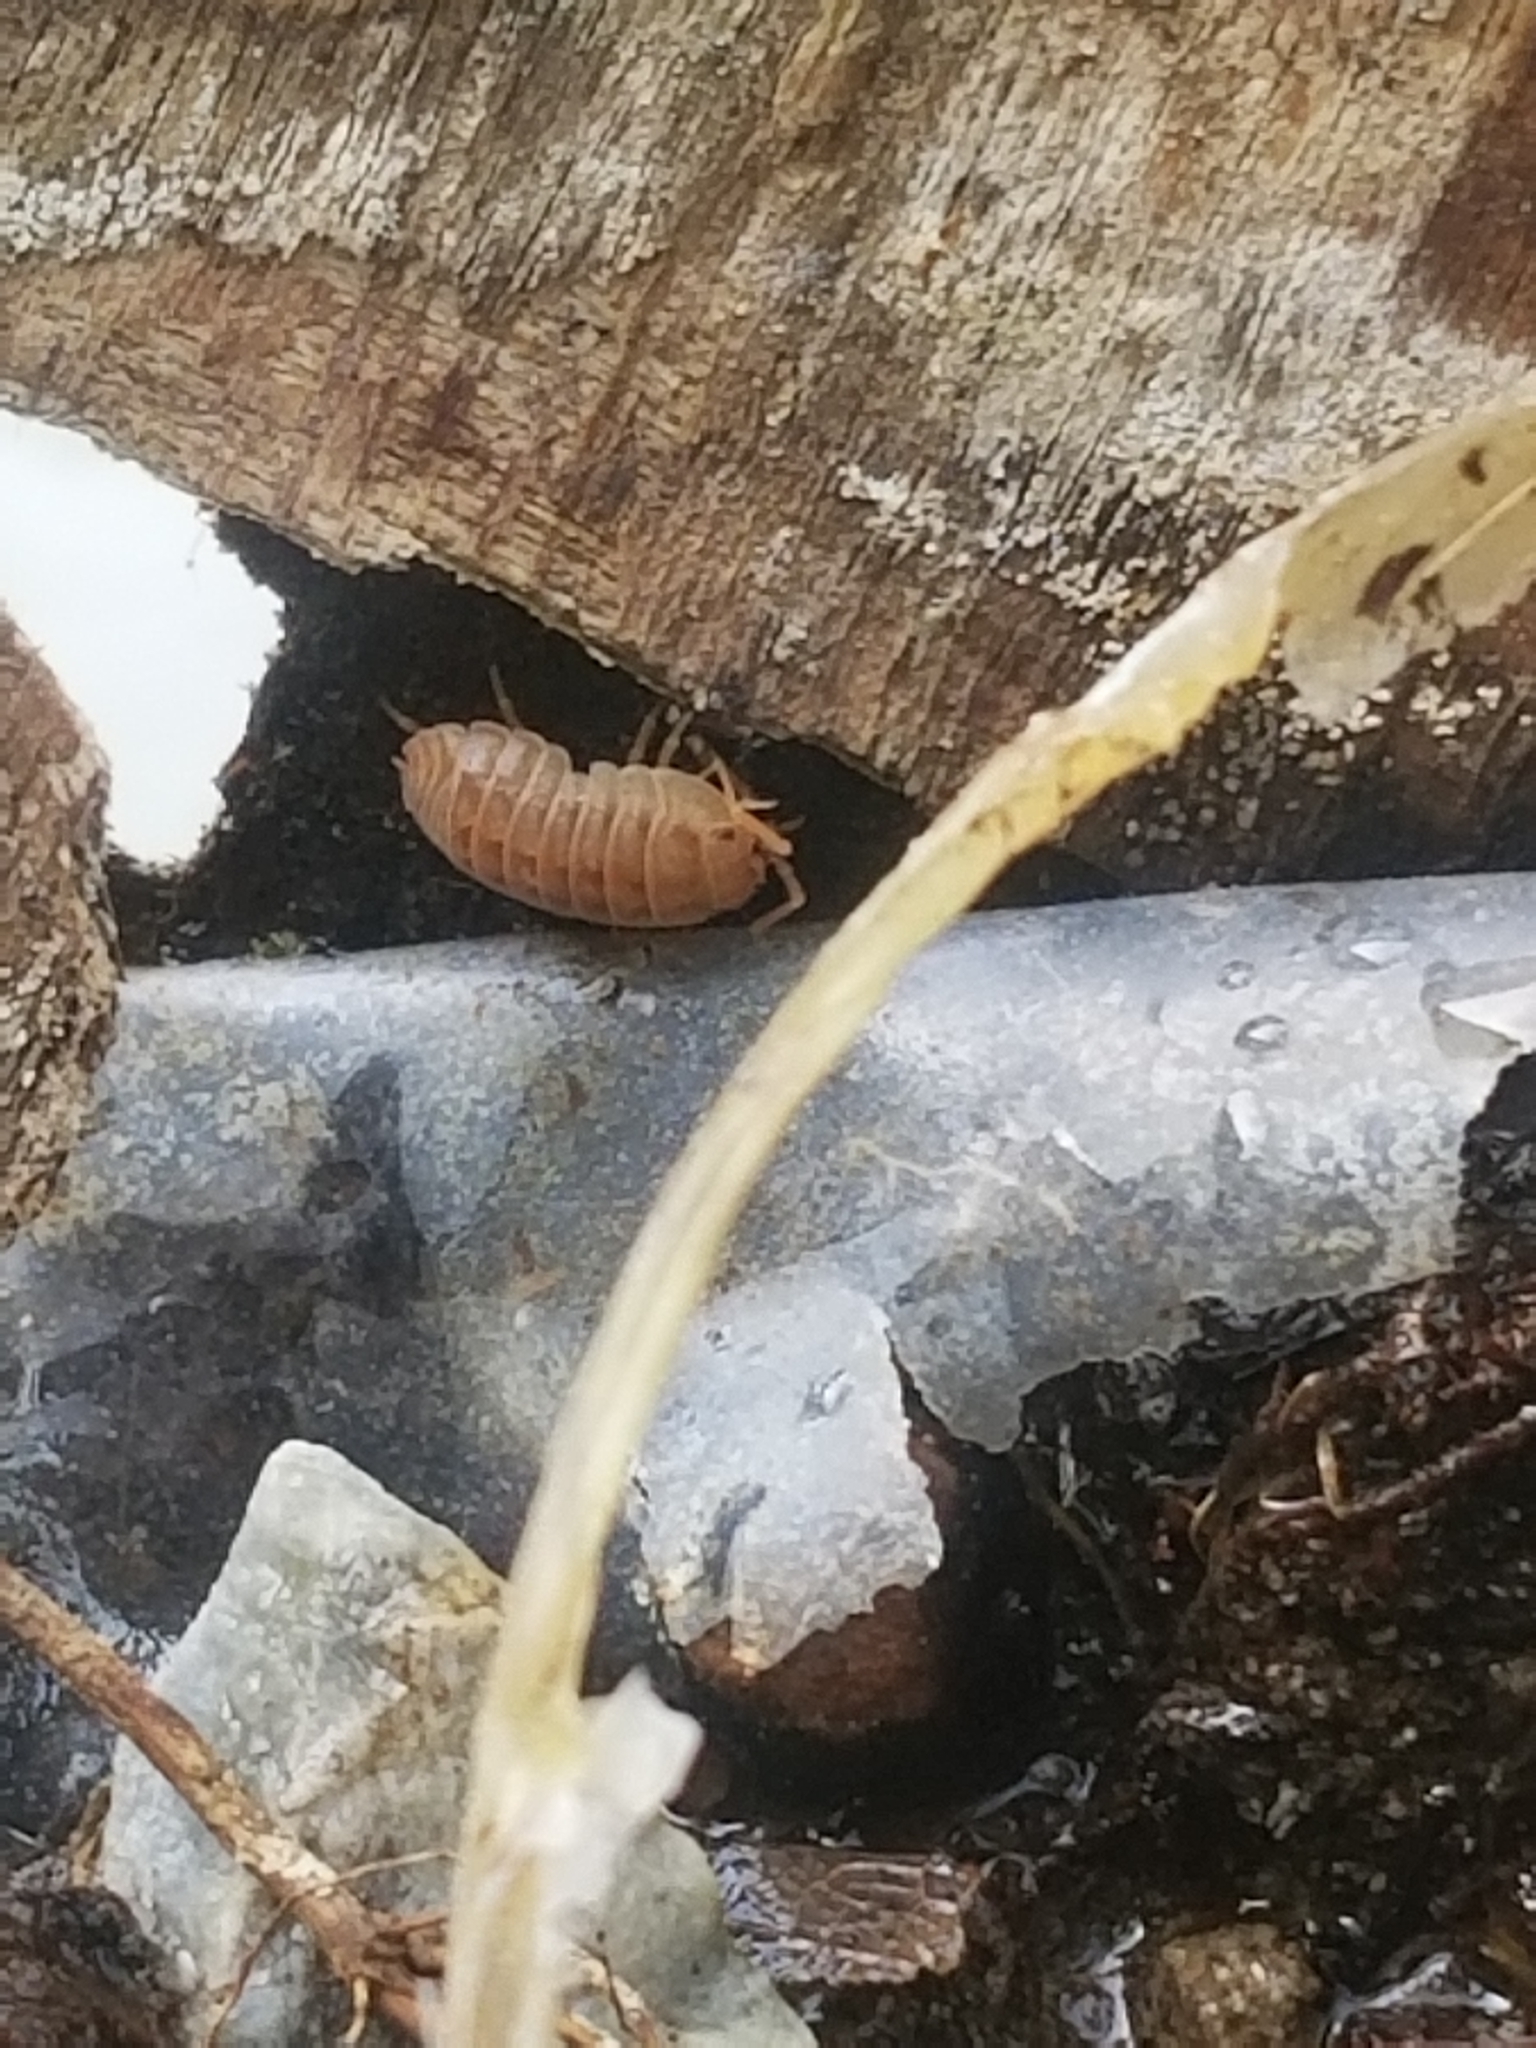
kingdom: Animalia
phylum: Arthropoda
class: Malacostraca
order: Isopoda
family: Armadillidiidae
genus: Armadillidium
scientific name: Armadillidium nasatum
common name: Isopod
